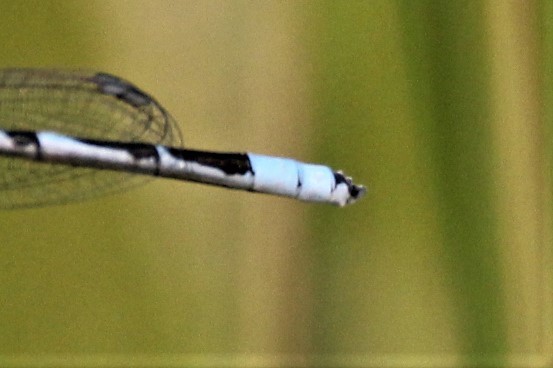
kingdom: Animalia
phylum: Arthropoda
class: Insecta
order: Odonata
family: Coenagrionidae
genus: Enallagma
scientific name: Enallagma civile
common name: Damselfly
